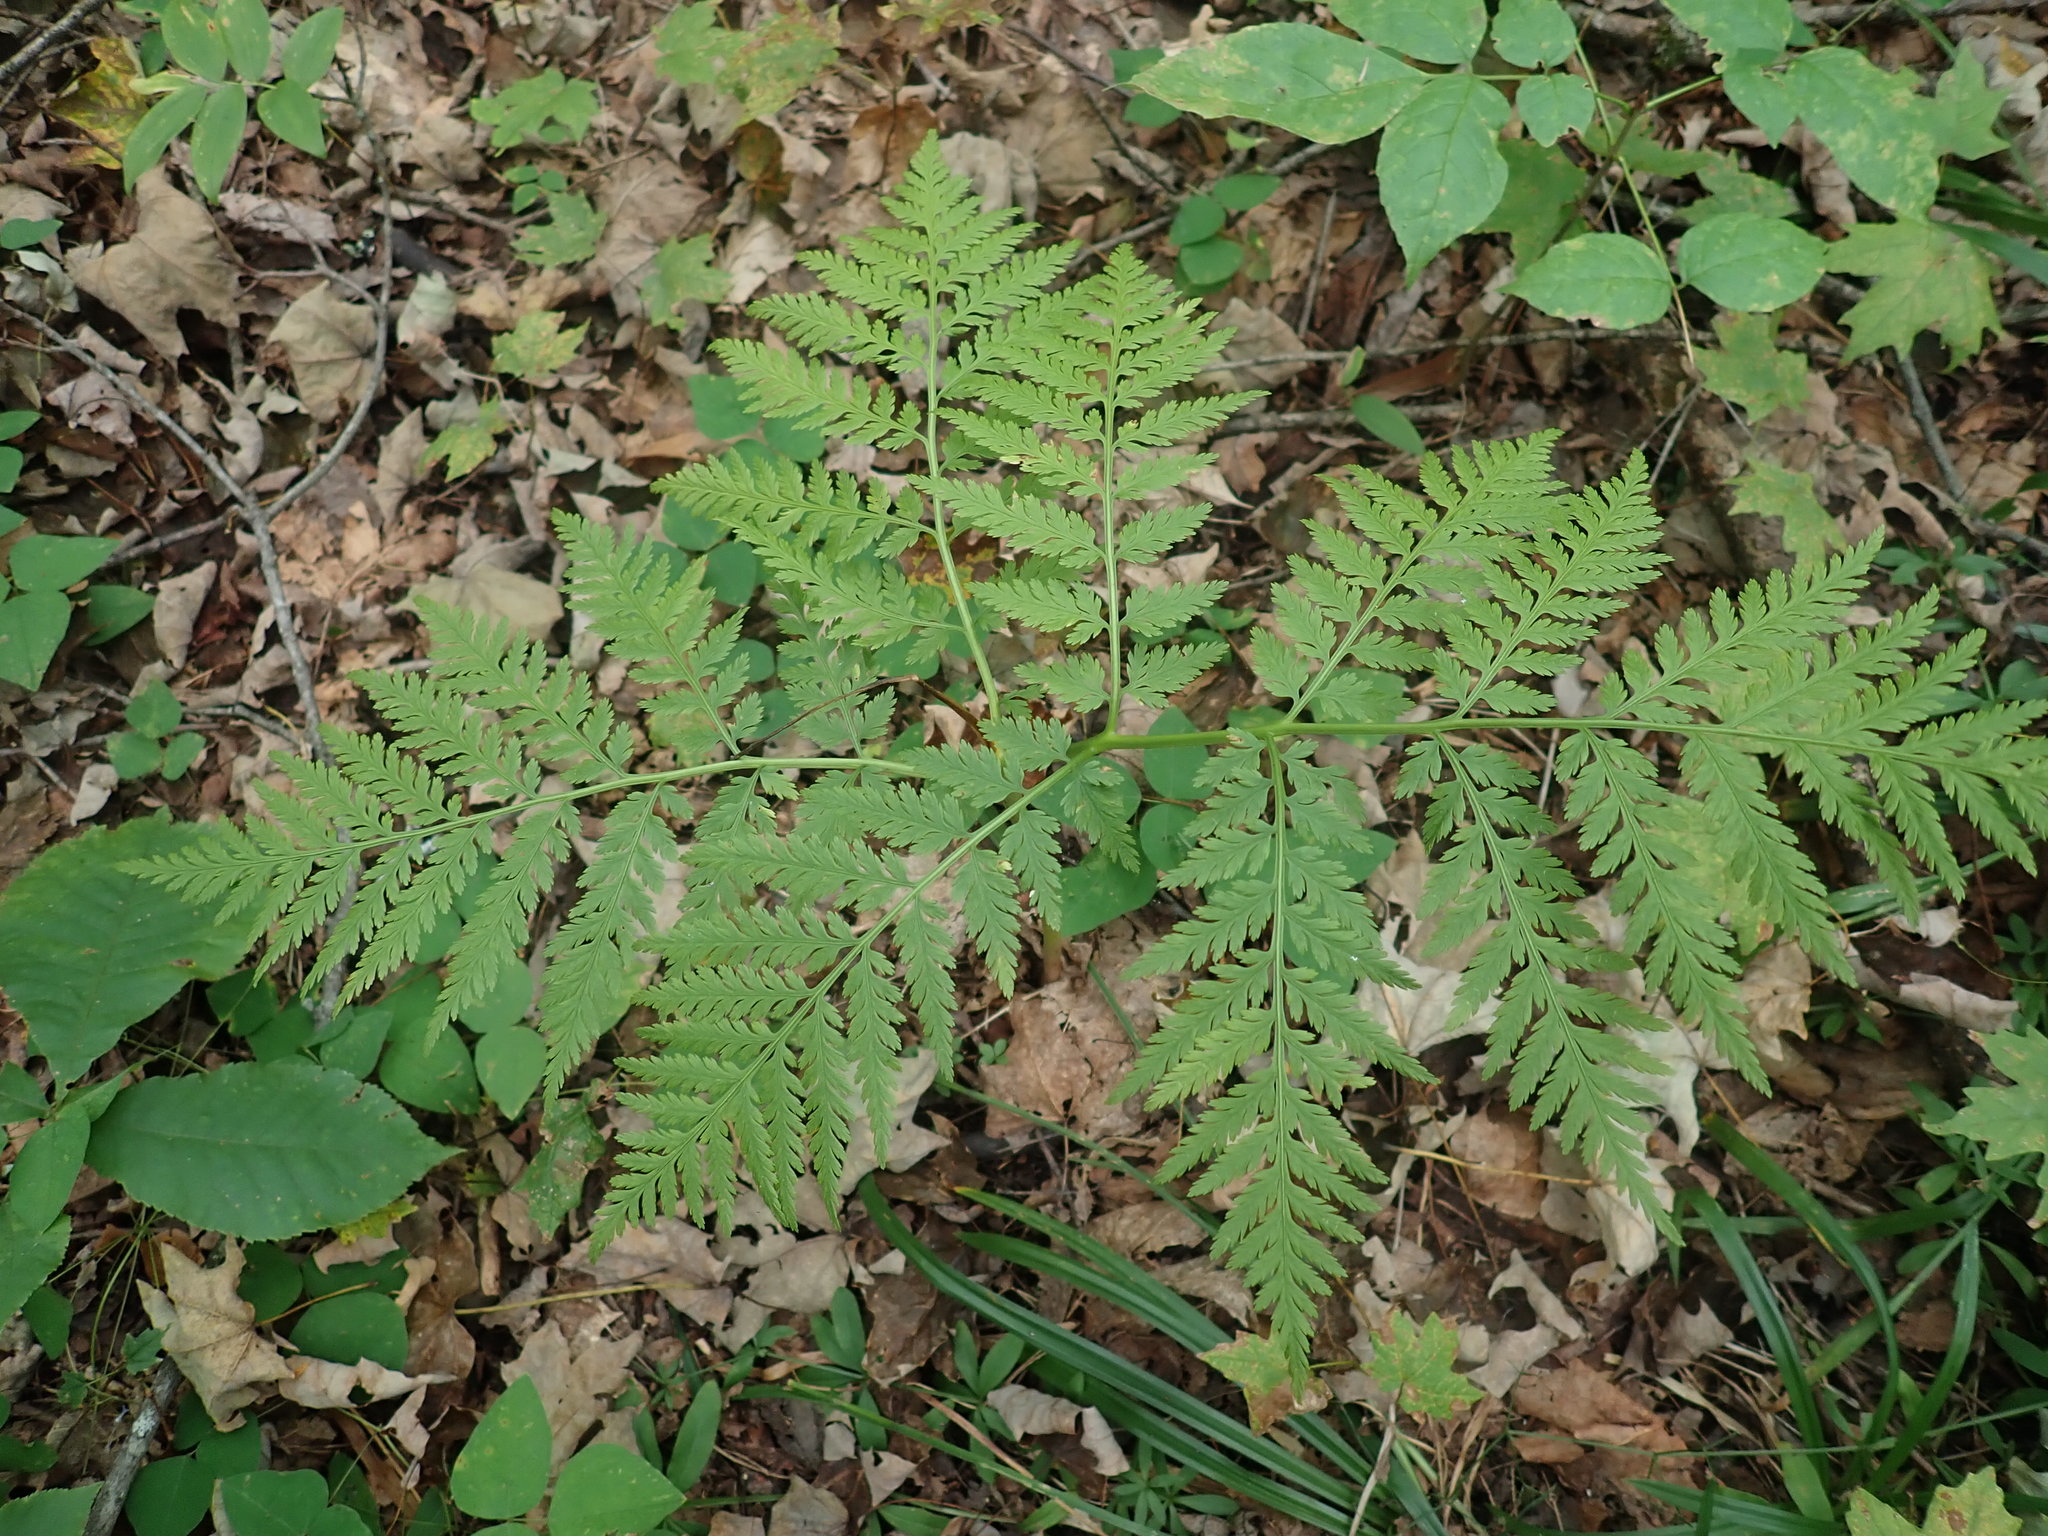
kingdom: Plantae
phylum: Tracheophyta
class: Polypodiopsida
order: Ophioglossales
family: Ophioglossaceae
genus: Botrypus
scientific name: Botrypus virginianus
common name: Common grapefern
